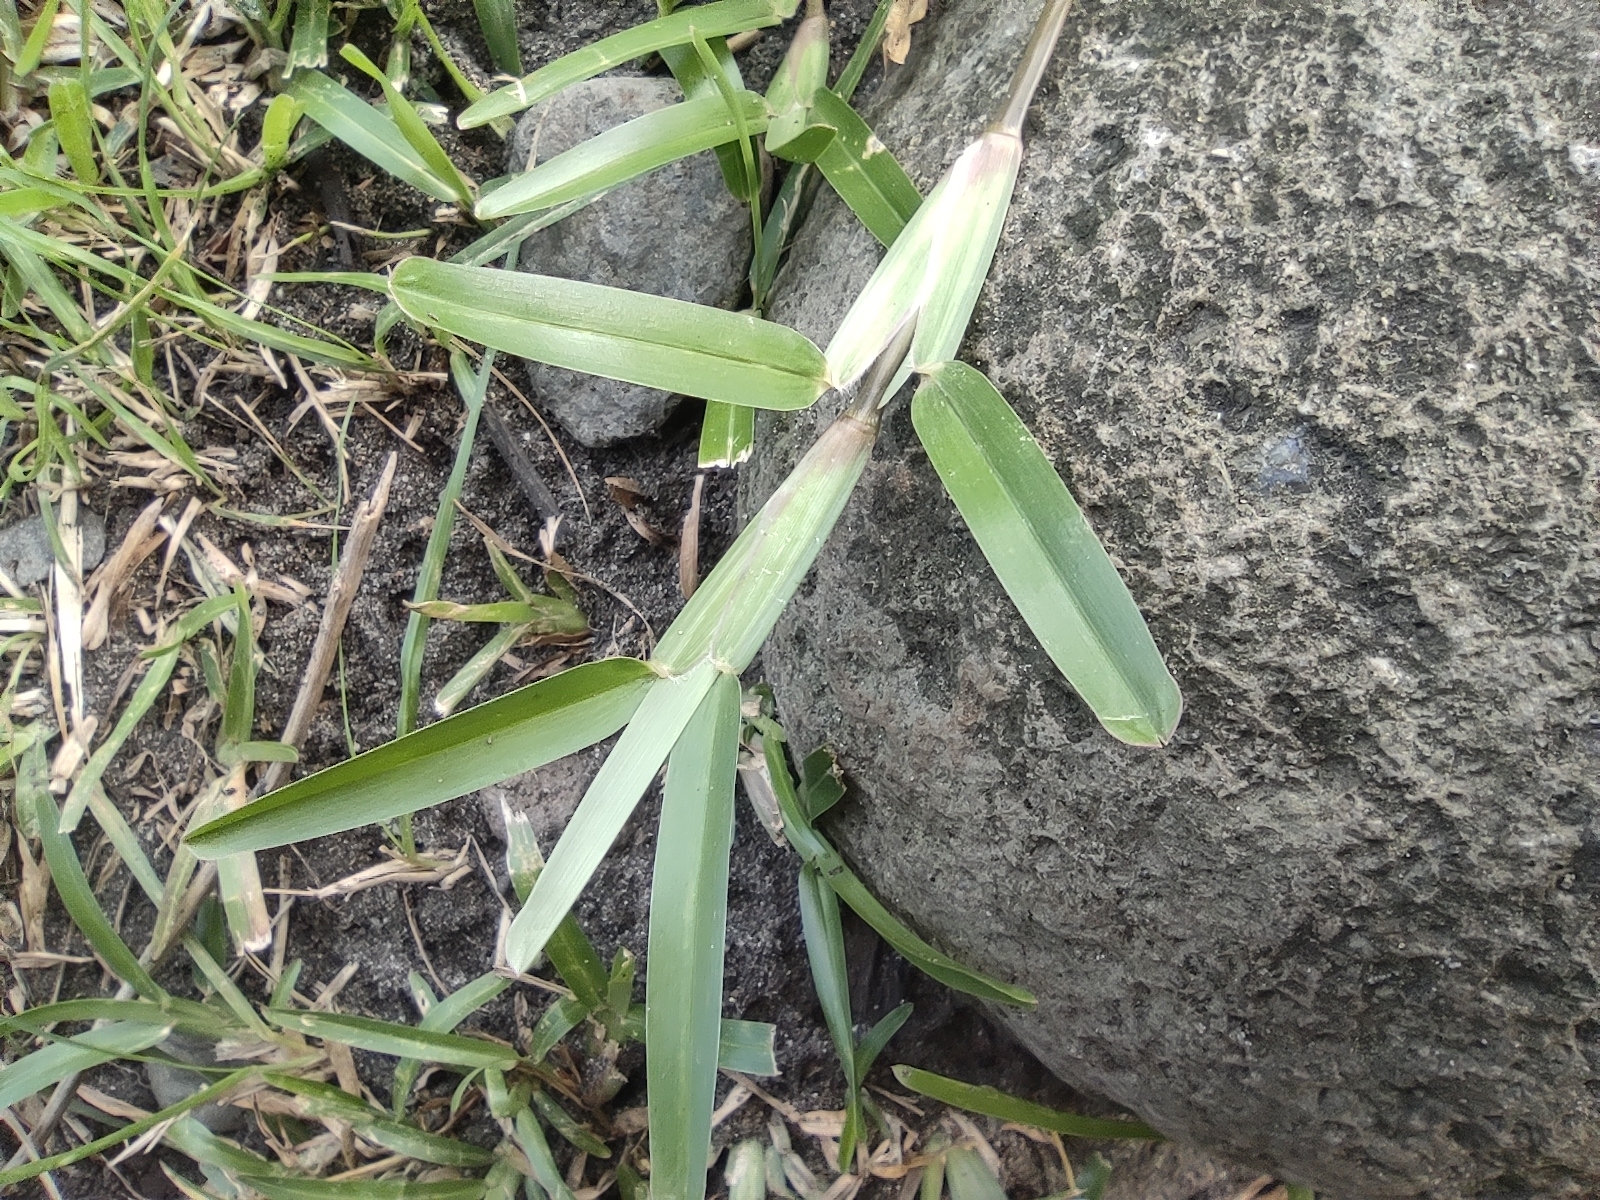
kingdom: Plantae
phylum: Tracheophyta
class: Liliopsida
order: Poales
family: Poaceae
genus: Stenotaphrum
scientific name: Stenotaphrum dimidiatum
